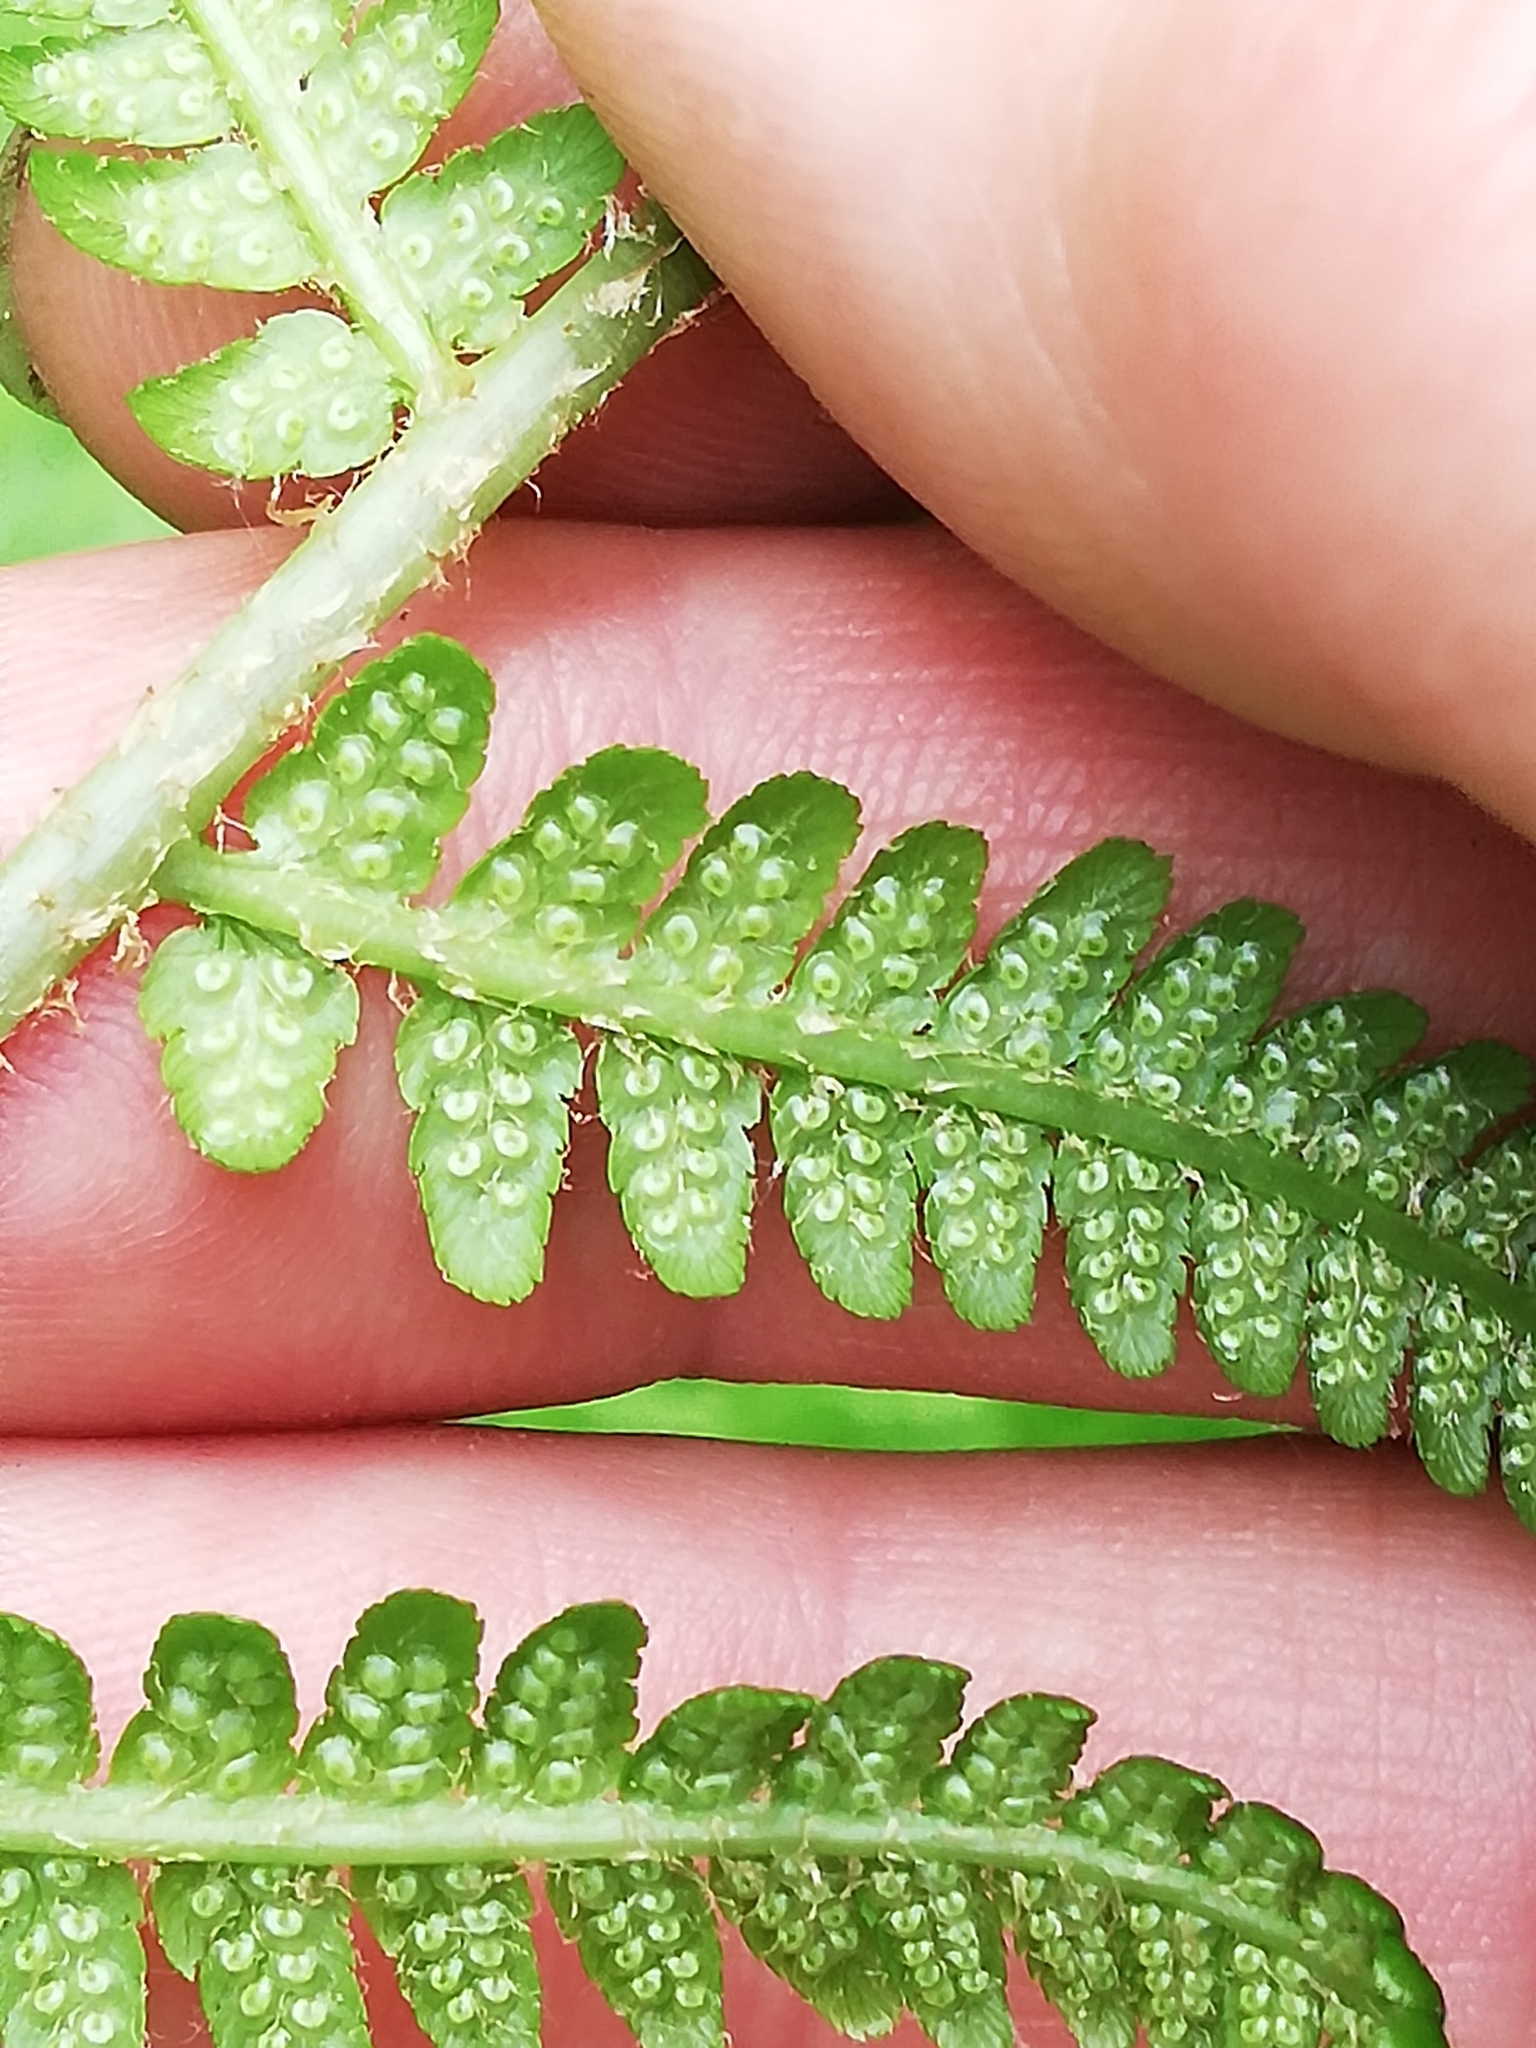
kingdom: Plantae
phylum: Tracheophyta
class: Polypodiopsida
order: Polypodiales
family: Dryopteridaceae
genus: Dryopteris
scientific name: Dryopteris filix-mas
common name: Male fern
